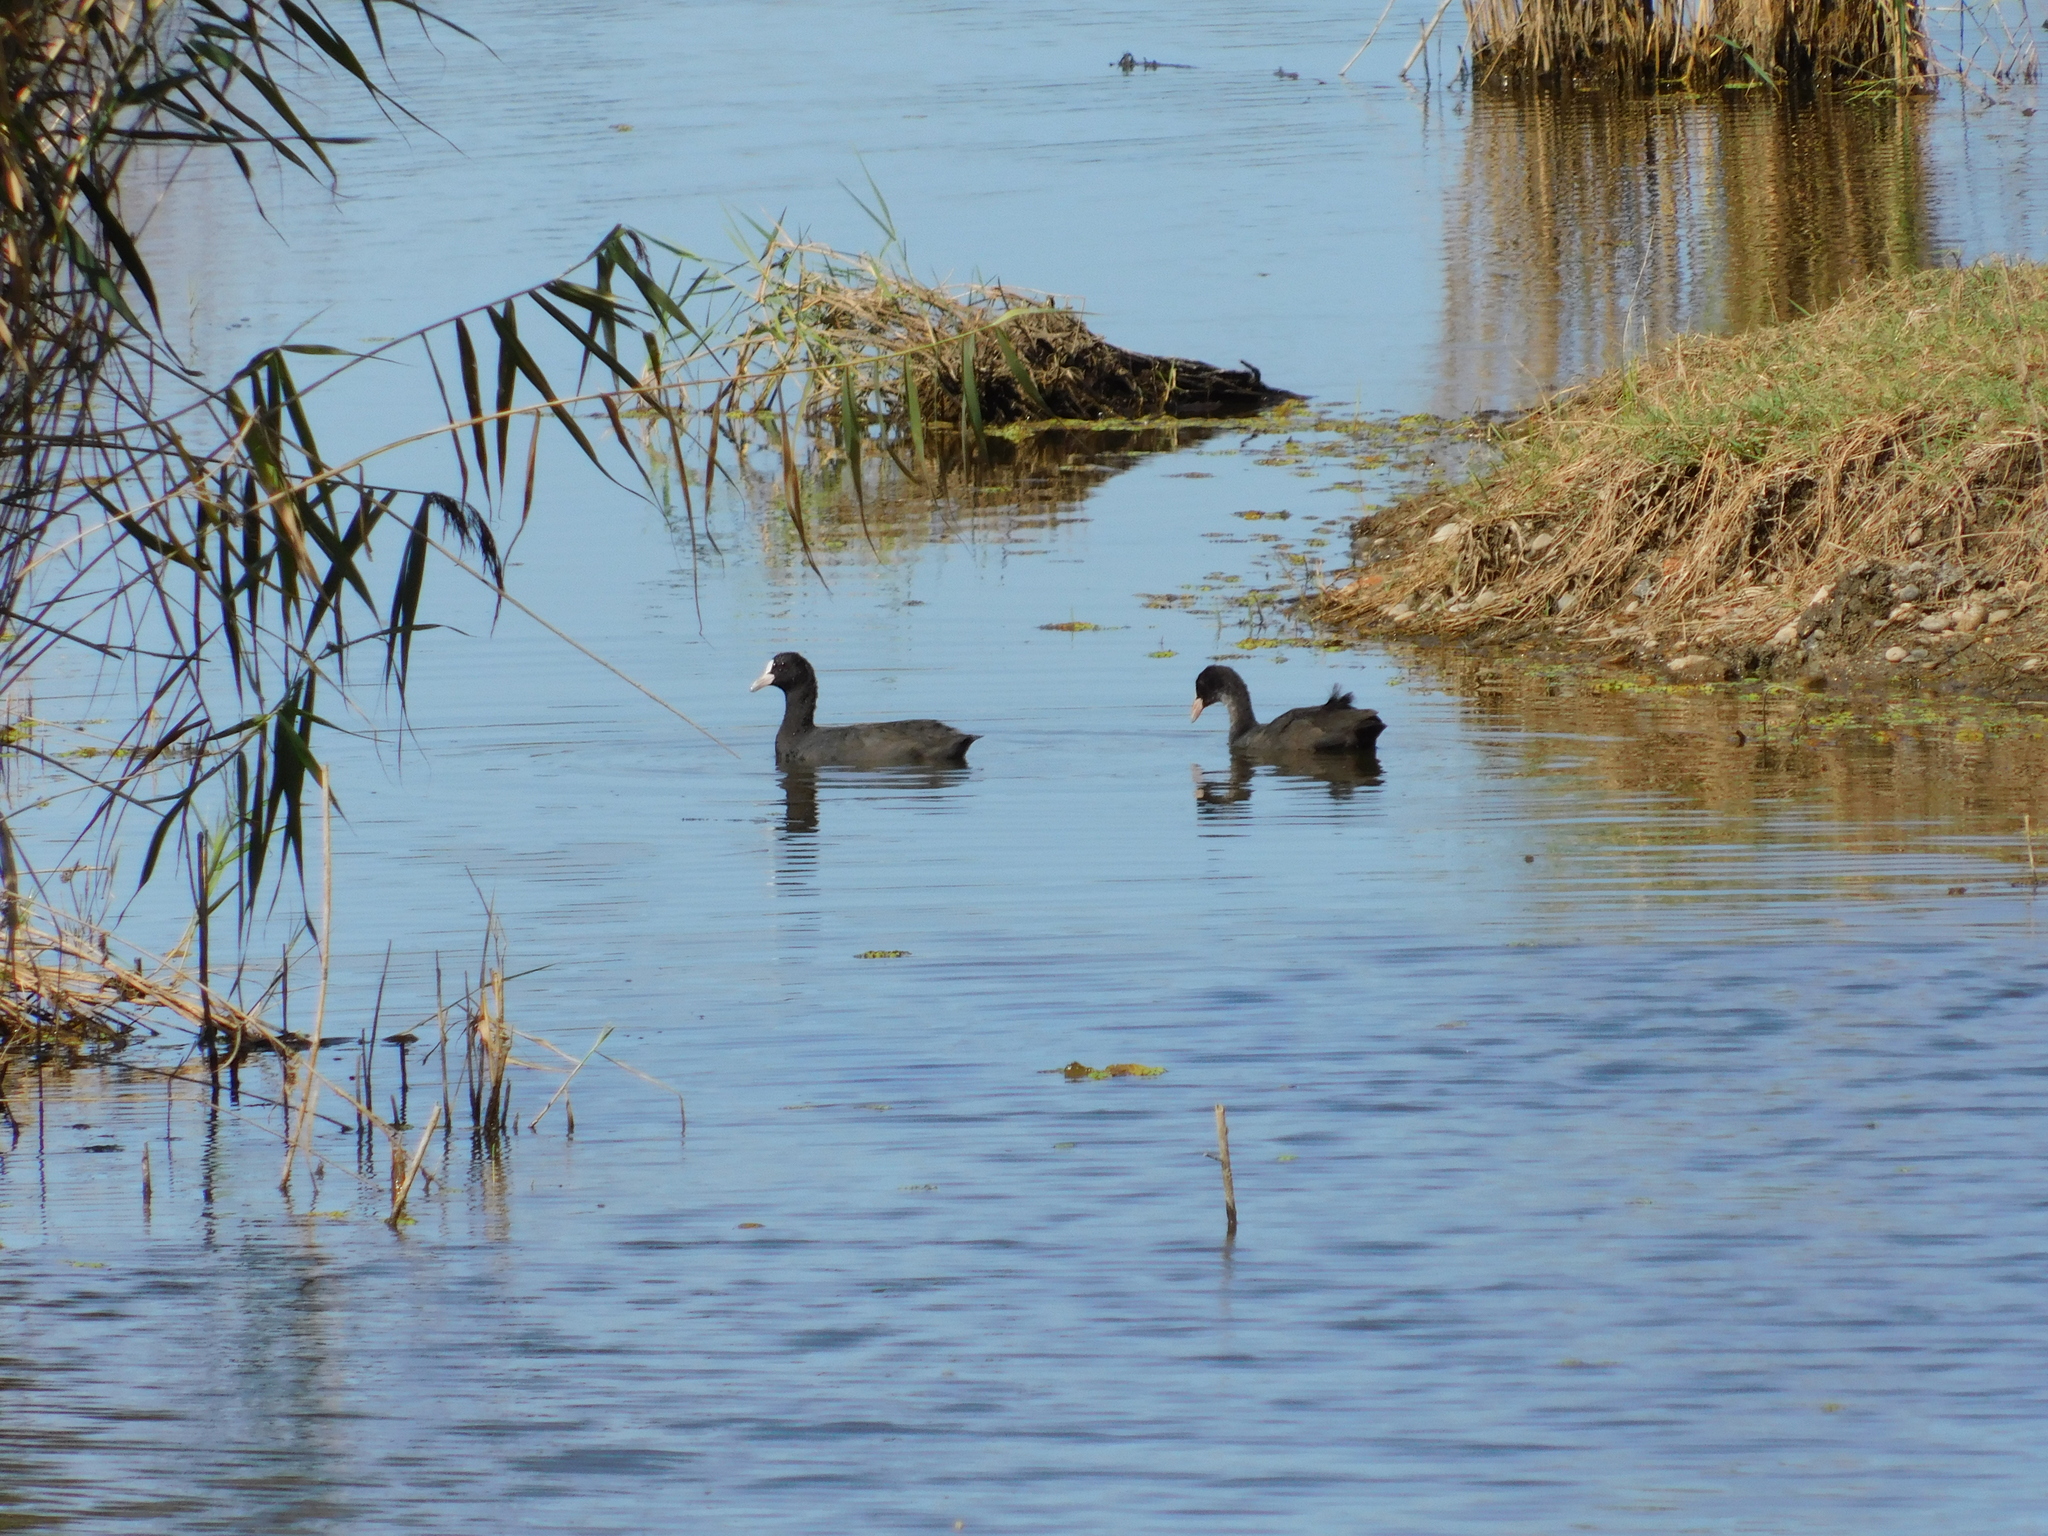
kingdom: Animalia
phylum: Chordata
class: Aves
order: Gruiformes
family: Rallidae
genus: Fulica
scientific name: Fulica atra
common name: Eurasian coot
